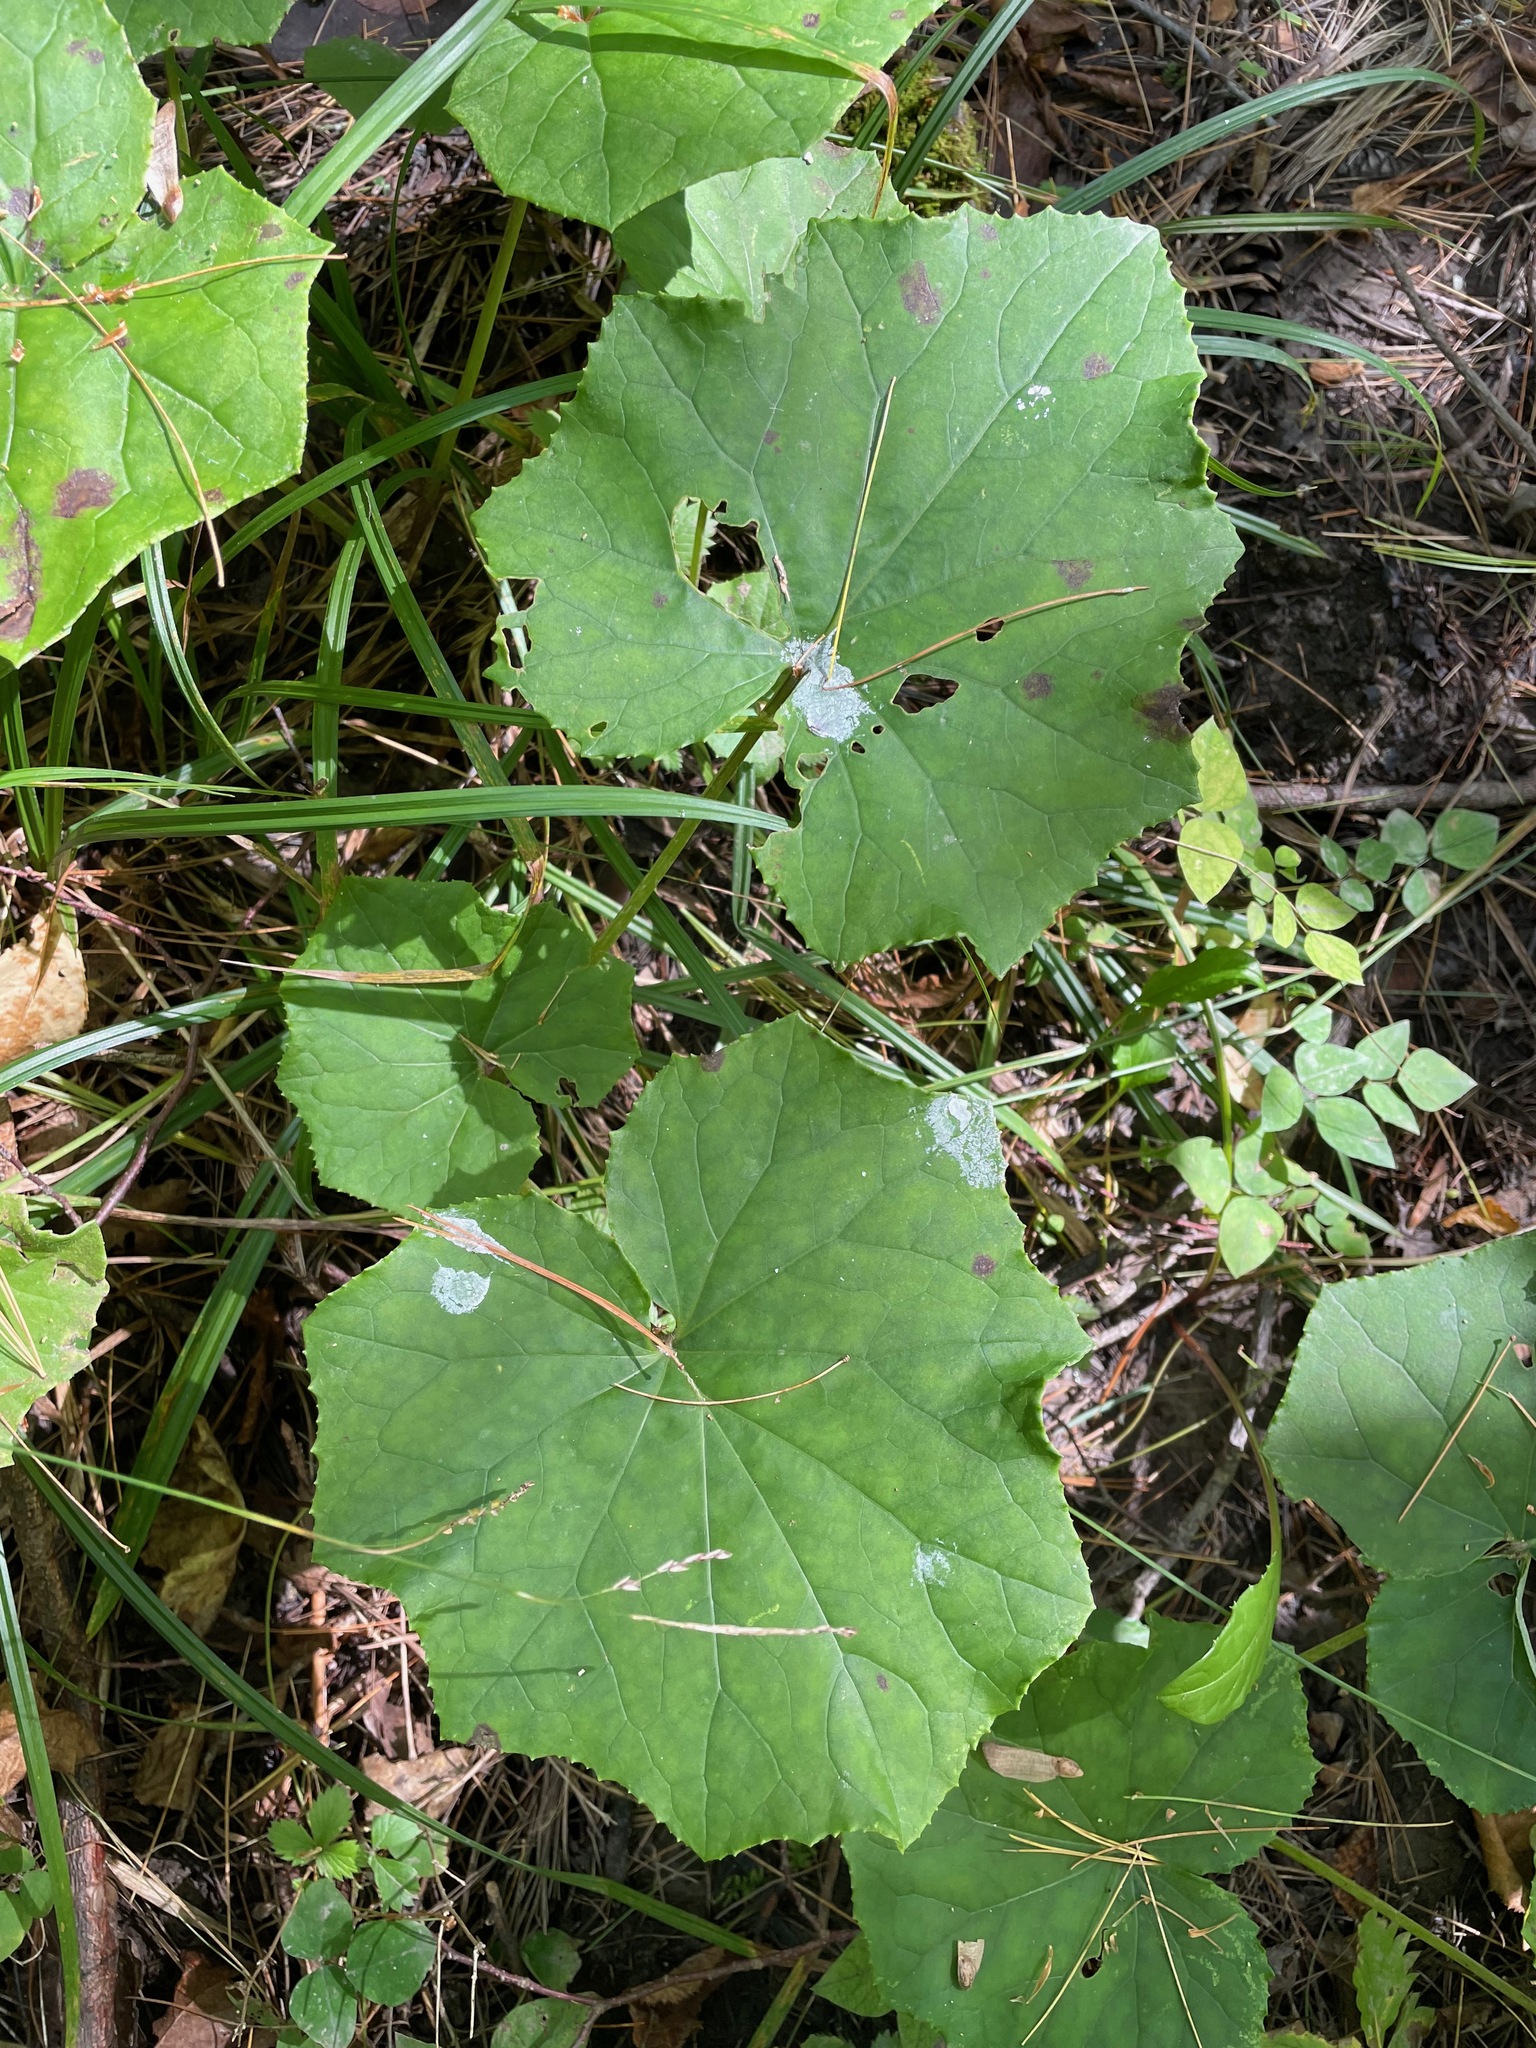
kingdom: Plantae
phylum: Tracheophyta
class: Magnoliopsida
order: Asterales
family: Asteraceae
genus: Tussilago
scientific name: Tussilago farfara
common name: Coltsfoot
